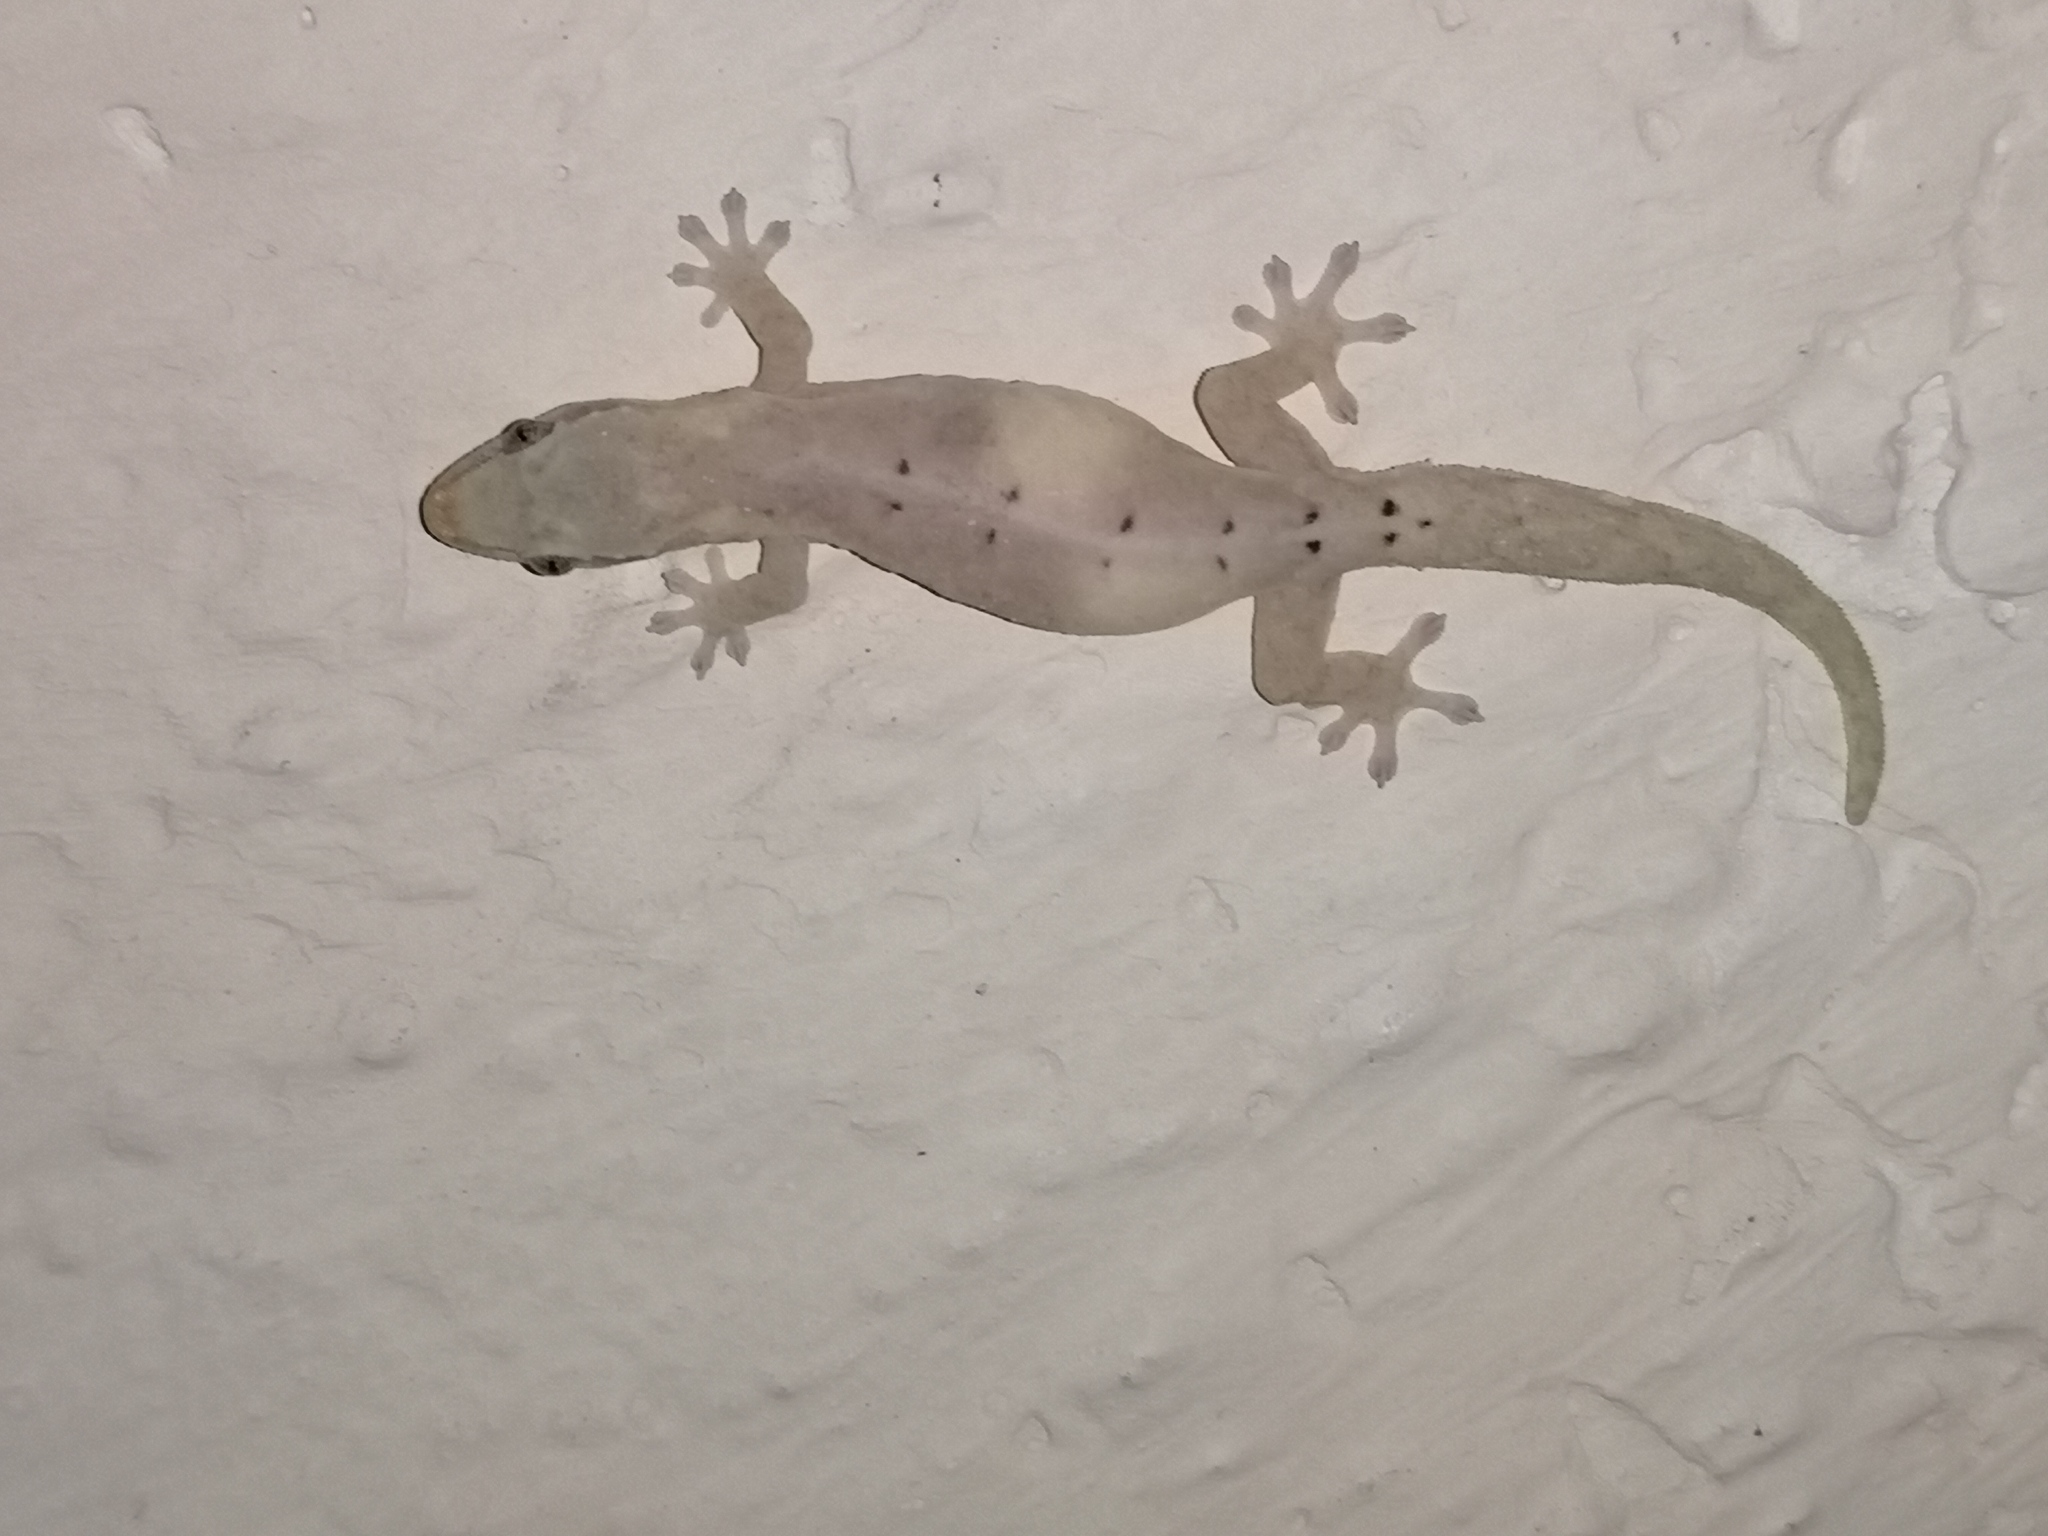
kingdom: Animalia
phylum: Chordata
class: Squamata
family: Gekkonidae
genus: Lepidodactylus
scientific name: Lepidodactylus lugubris
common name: Mourning gecko
